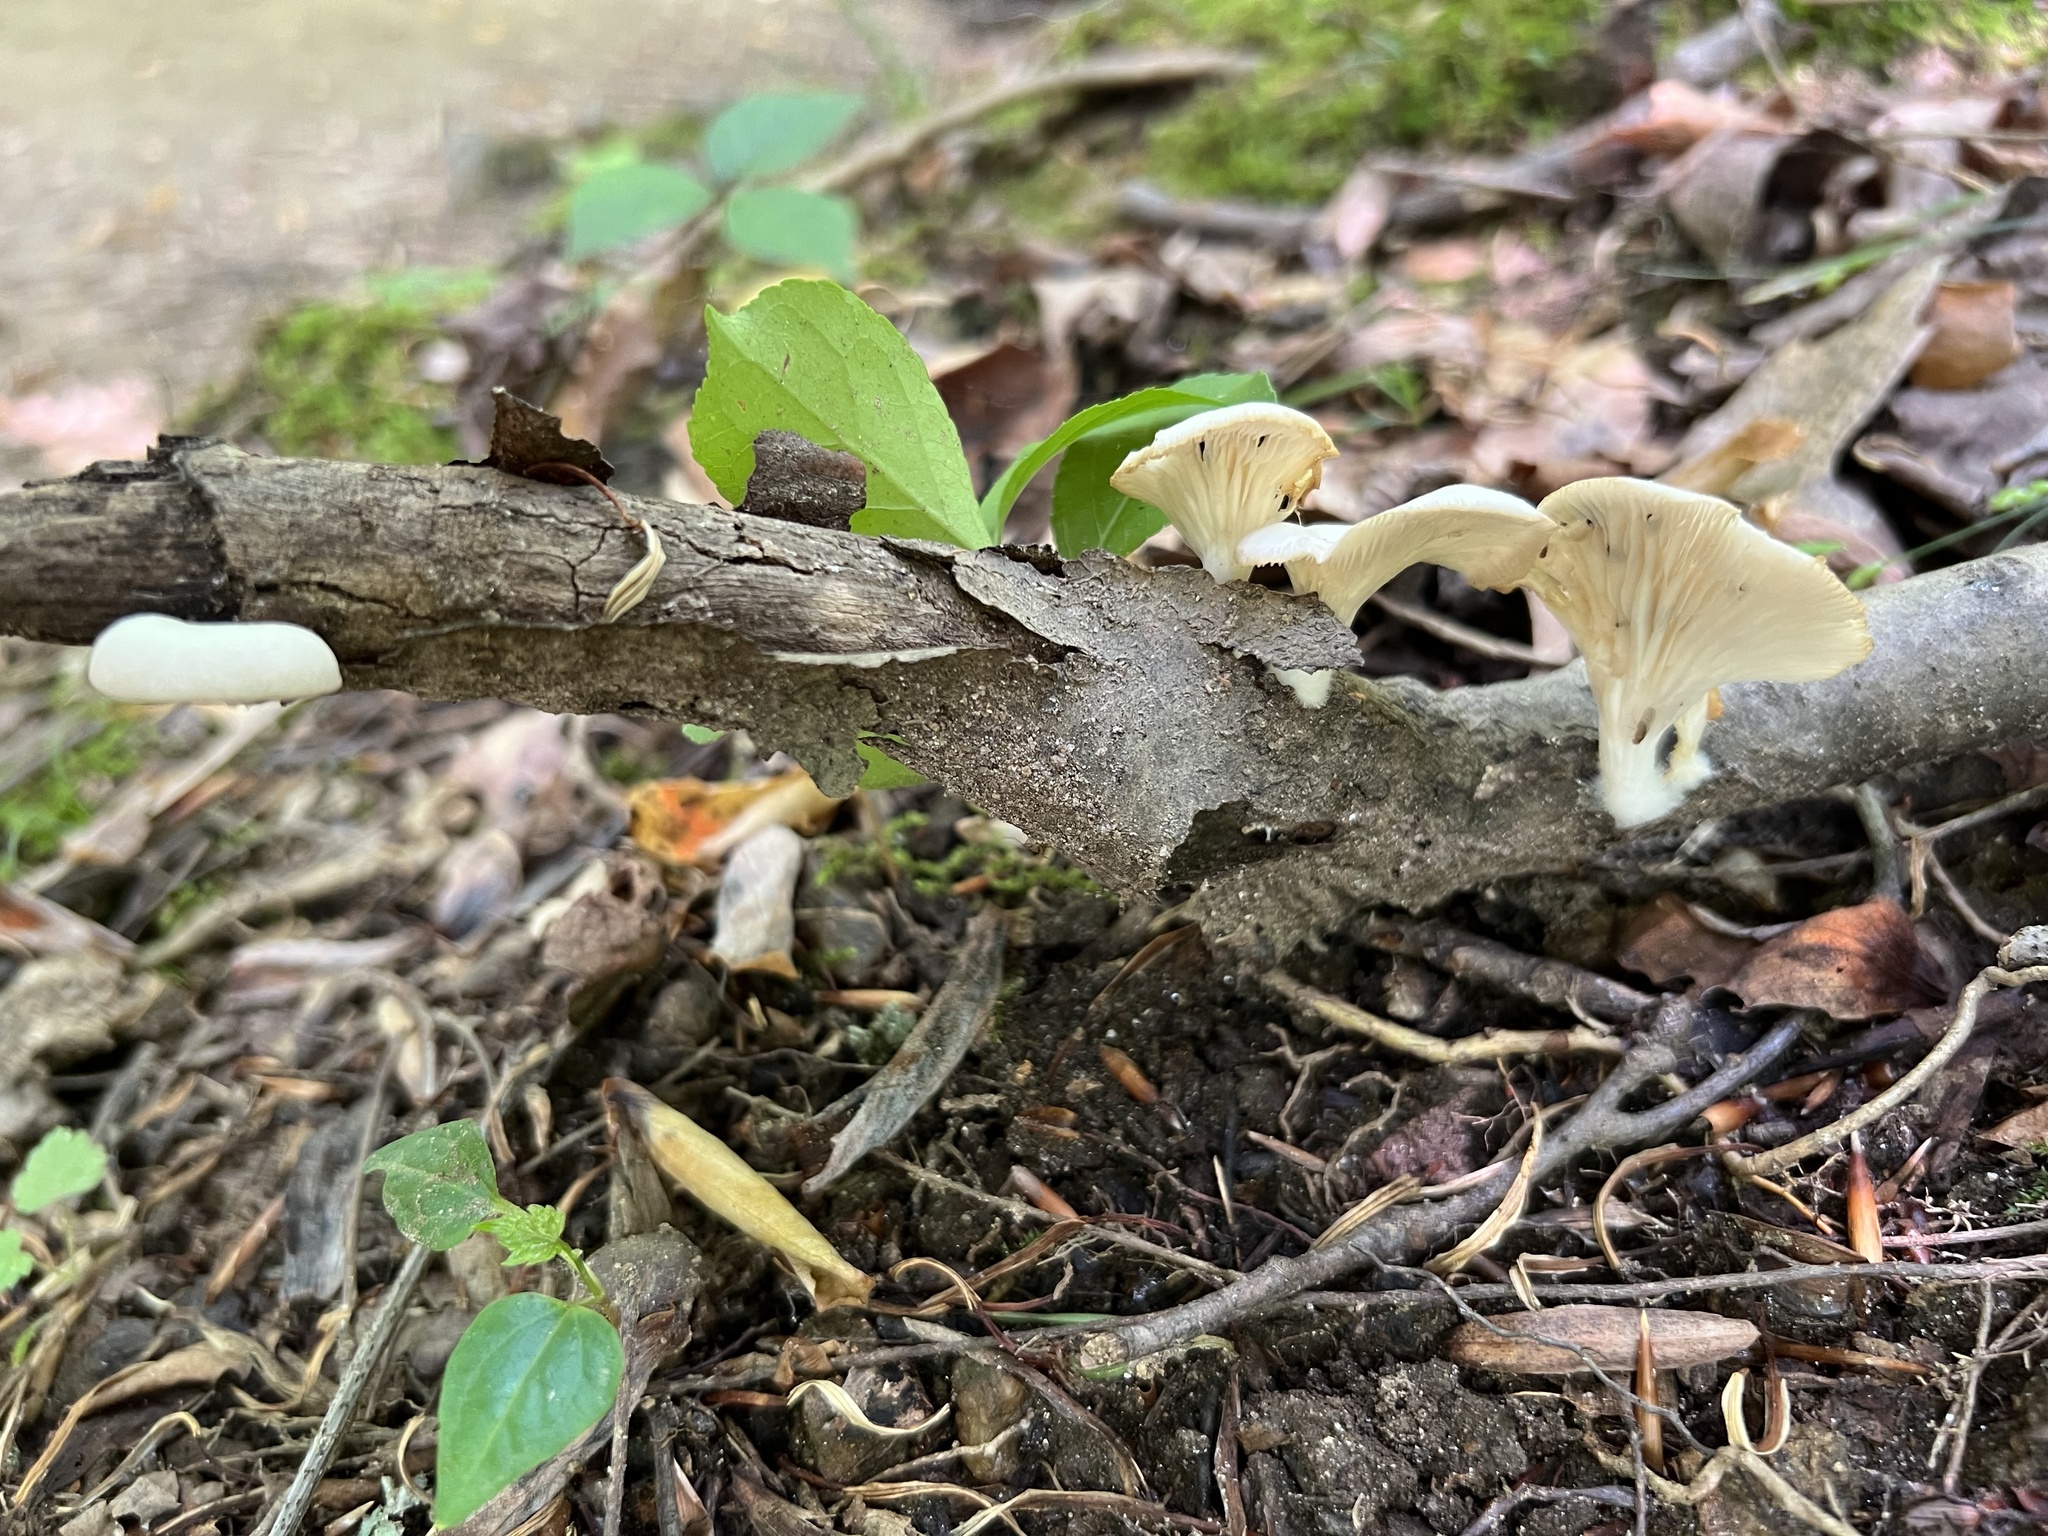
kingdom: Fungi
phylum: Basidiomycota
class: Agaricomycetes
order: Agaricales
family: Pleurotaceae
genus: Pleurotus
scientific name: Pleurotus pulmonarius
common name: Pale oyster
